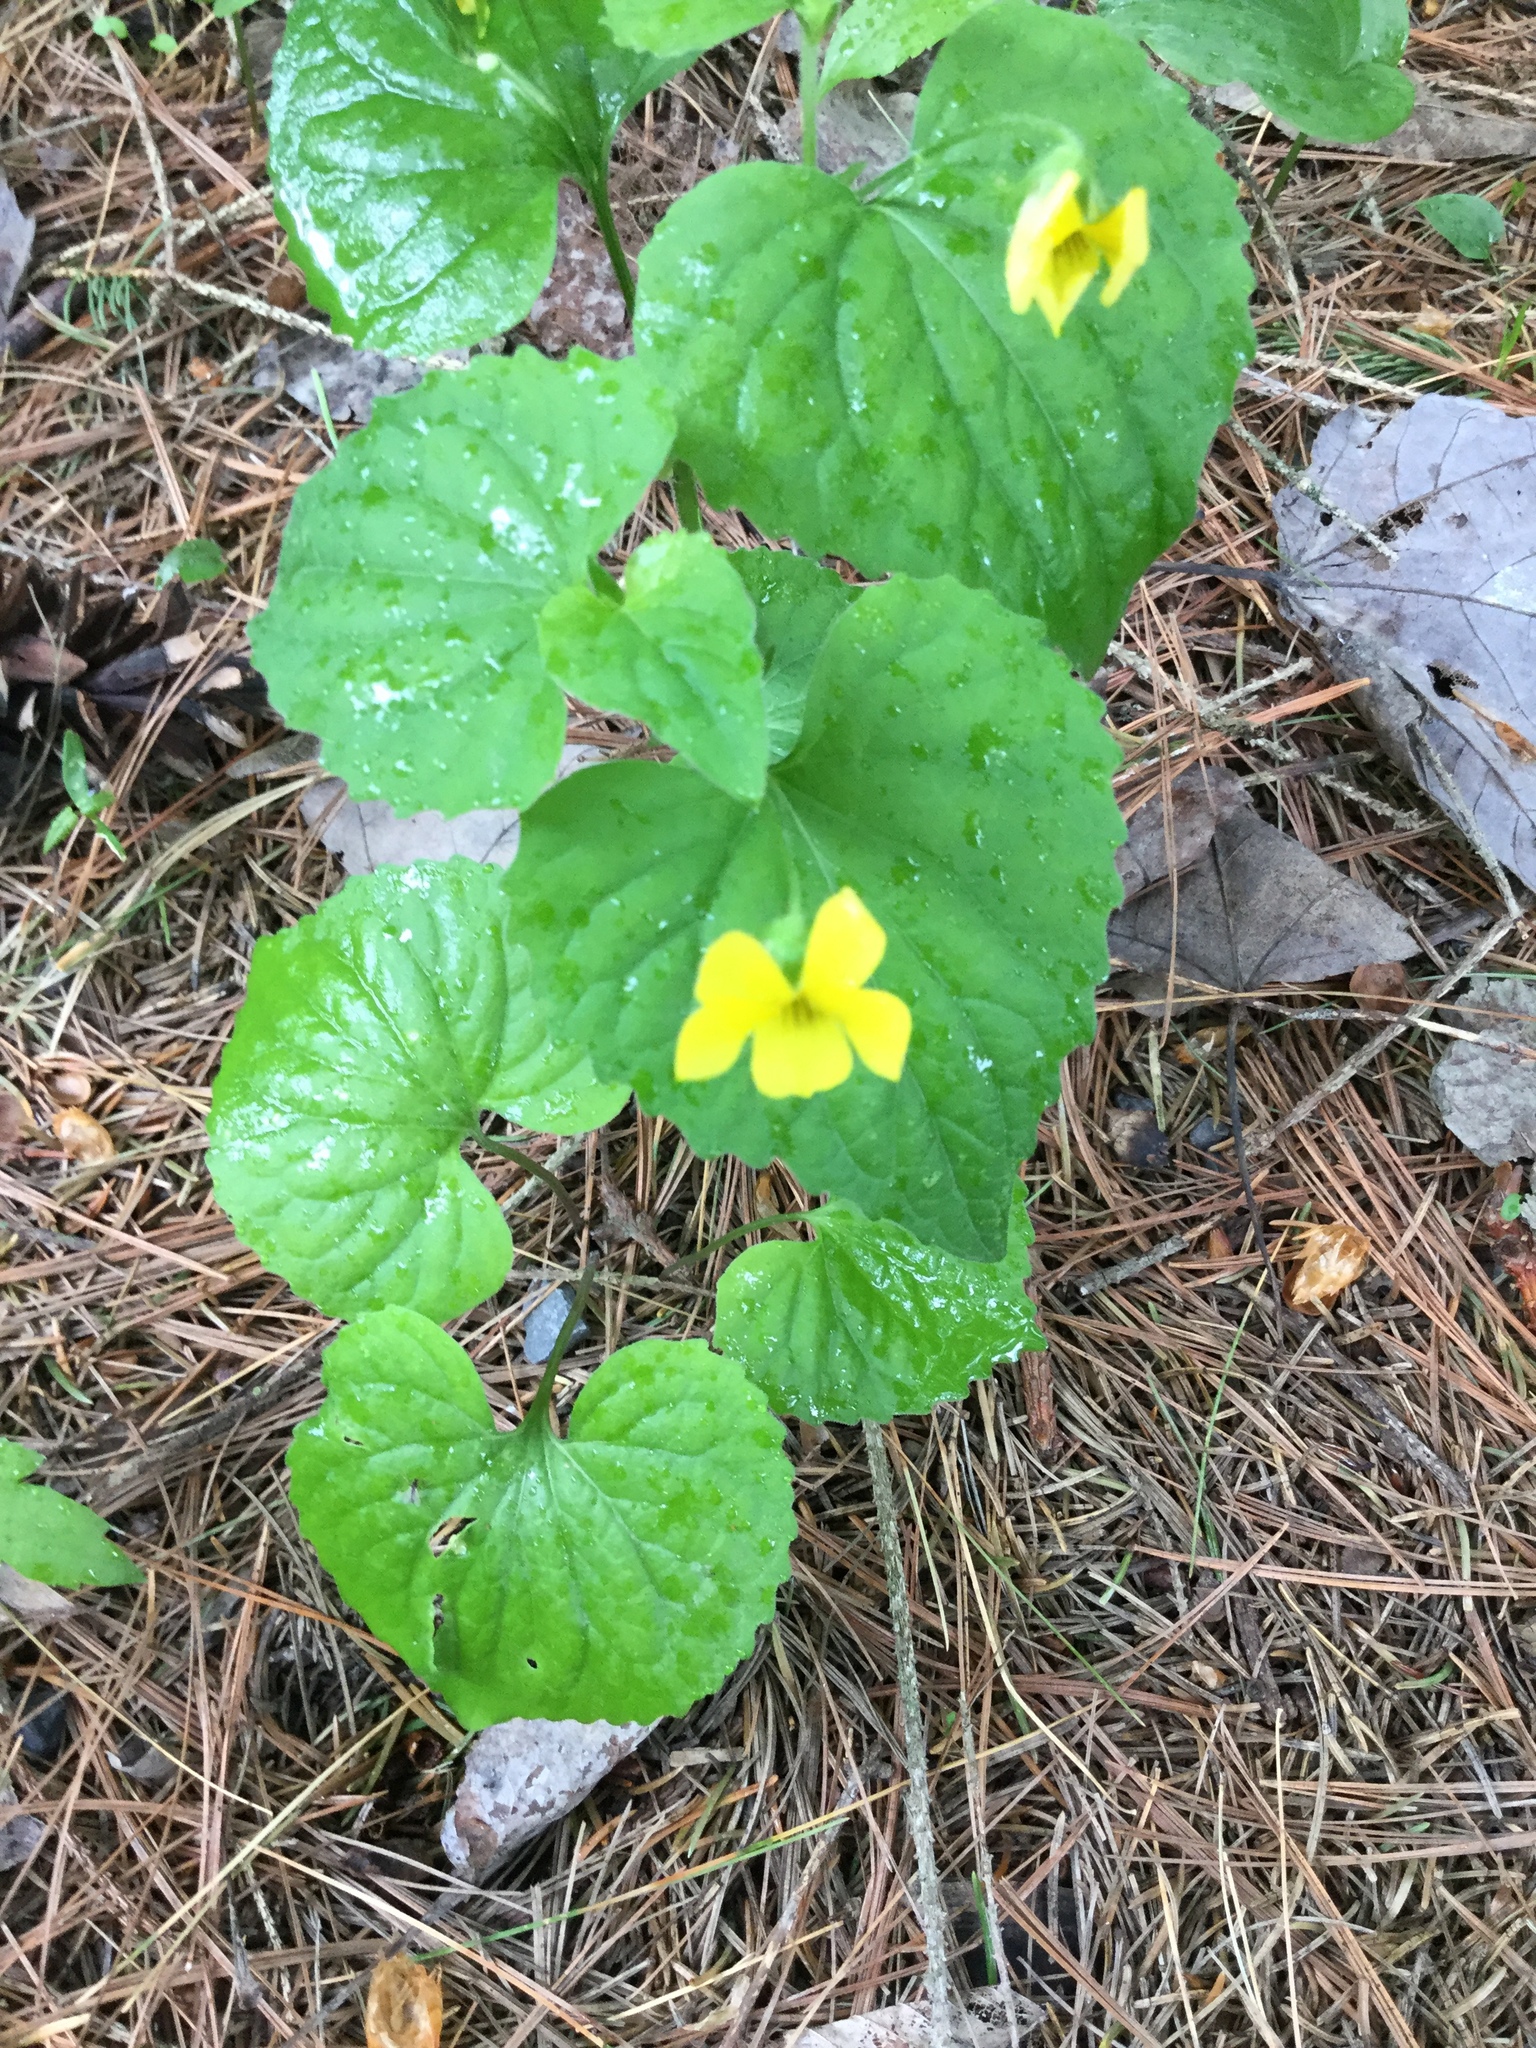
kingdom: Plantae
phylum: Tracheophyta
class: Magnoliopsida
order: Malpighiales
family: Violaceae
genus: Viola
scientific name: Viola eriocarpa
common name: Smooth yellow violet
